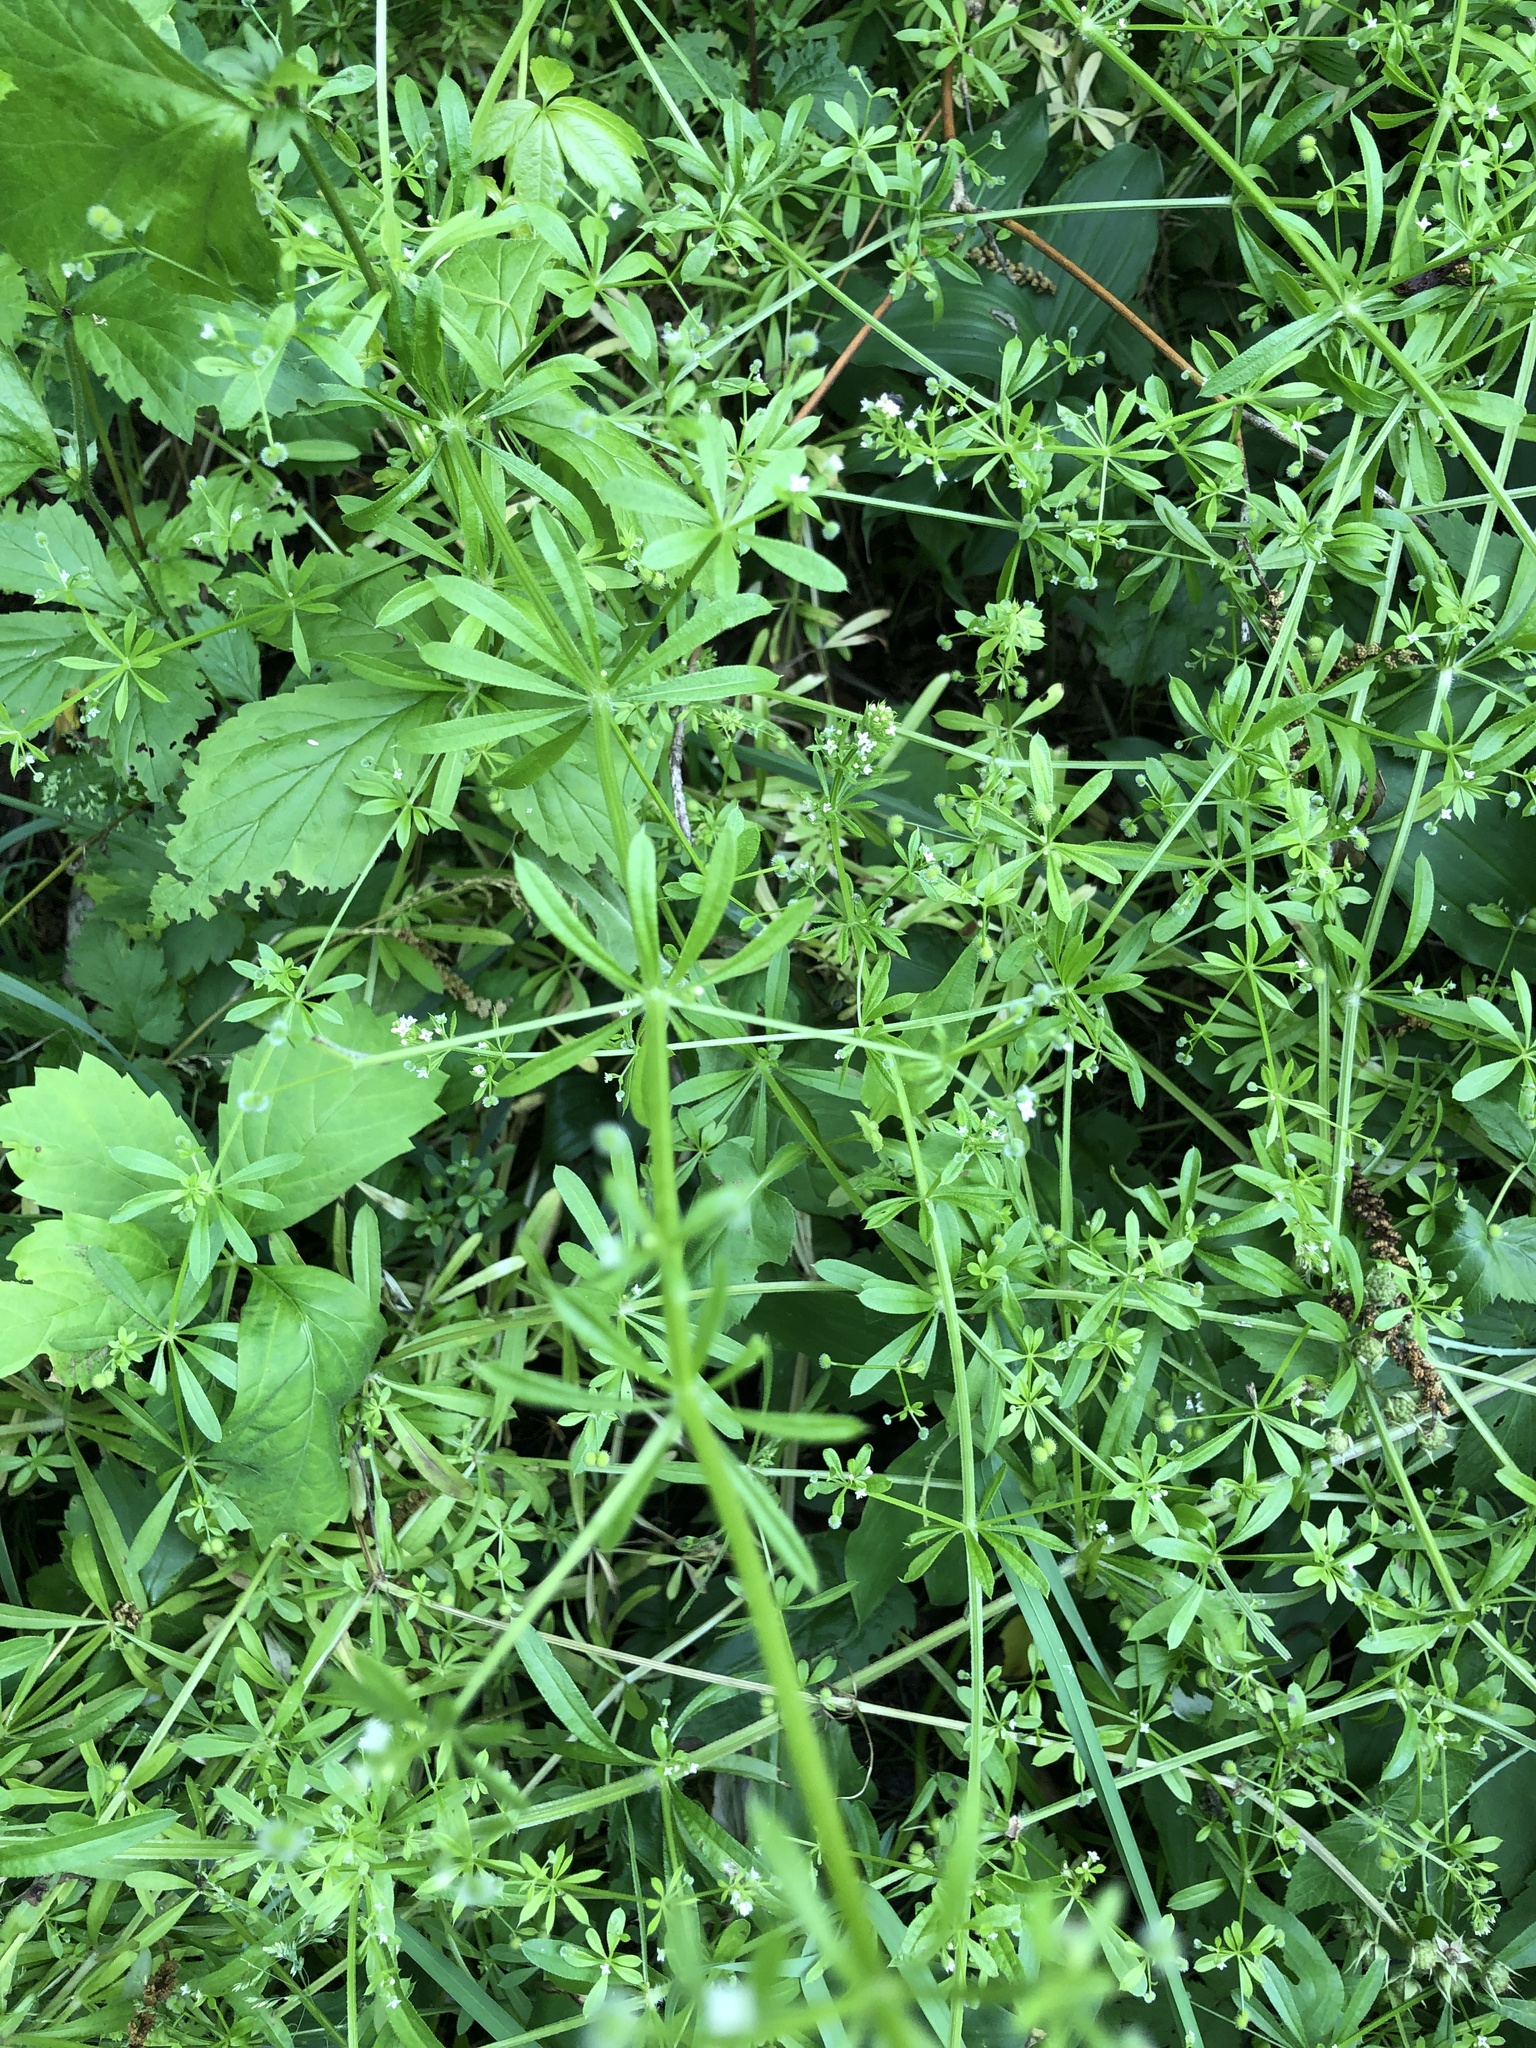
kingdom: Plantae
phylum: Tracheophyta
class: Magnoliopsida
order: Gentianales
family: Rubiaceae
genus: Galium
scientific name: Galium aparine
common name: Cleavers
